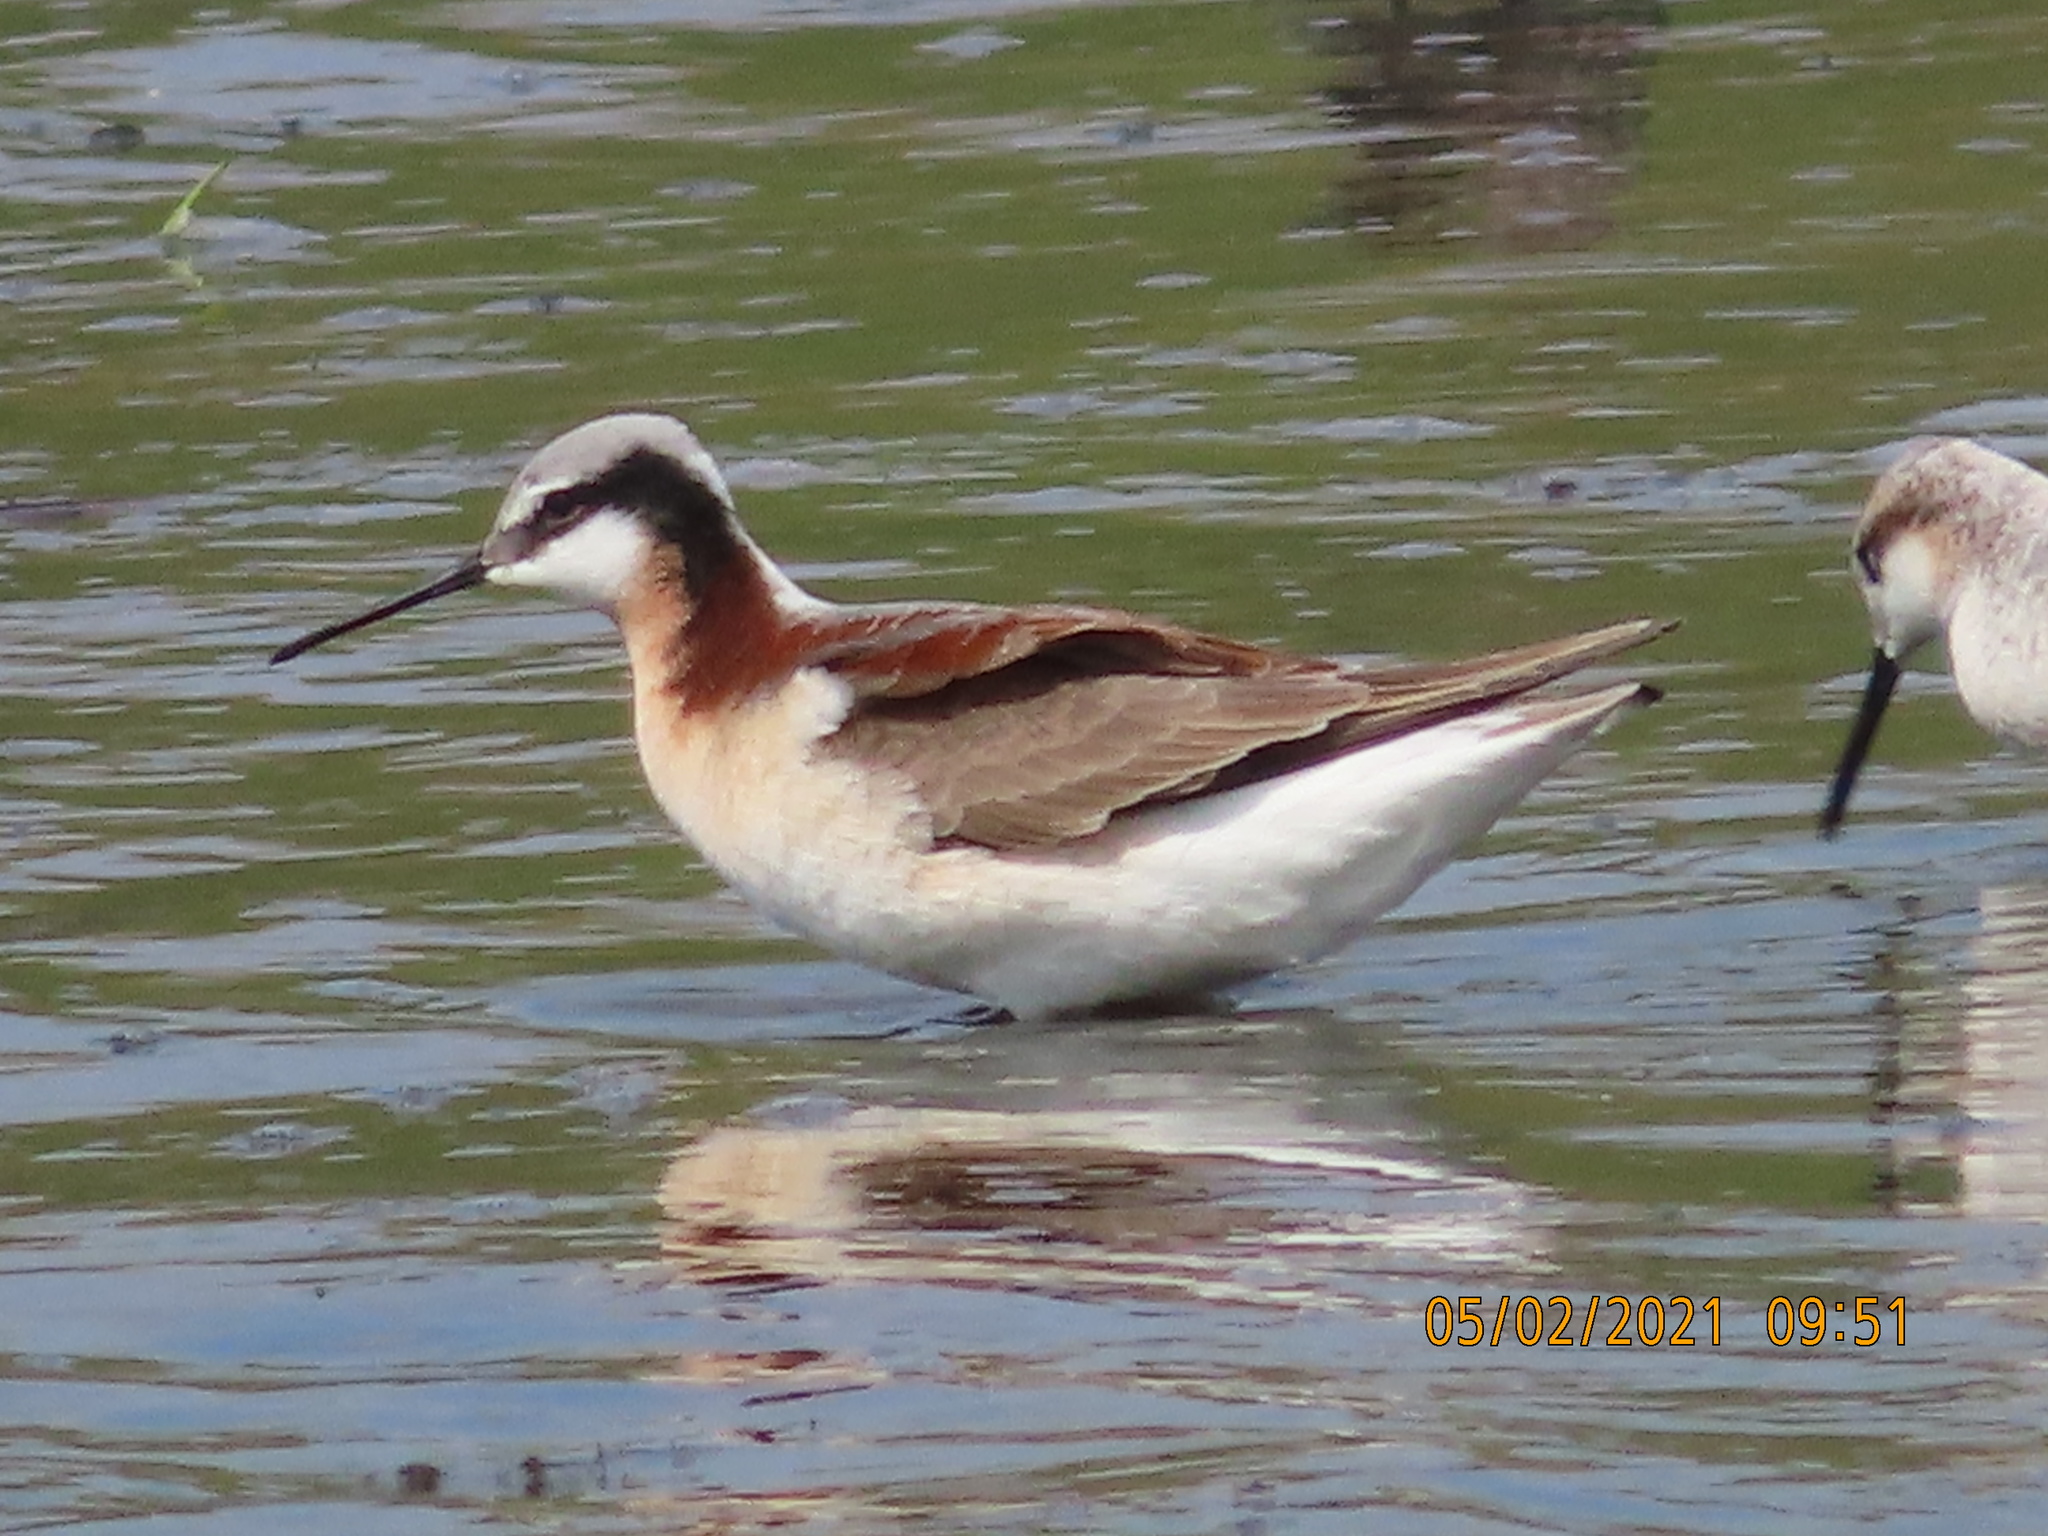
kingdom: Animalia
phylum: Chordata
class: Aves
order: Charadriiformes
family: Scolopacidae
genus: Phalaropus
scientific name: Phalaropus tricolor
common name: Wilson's phalarope
